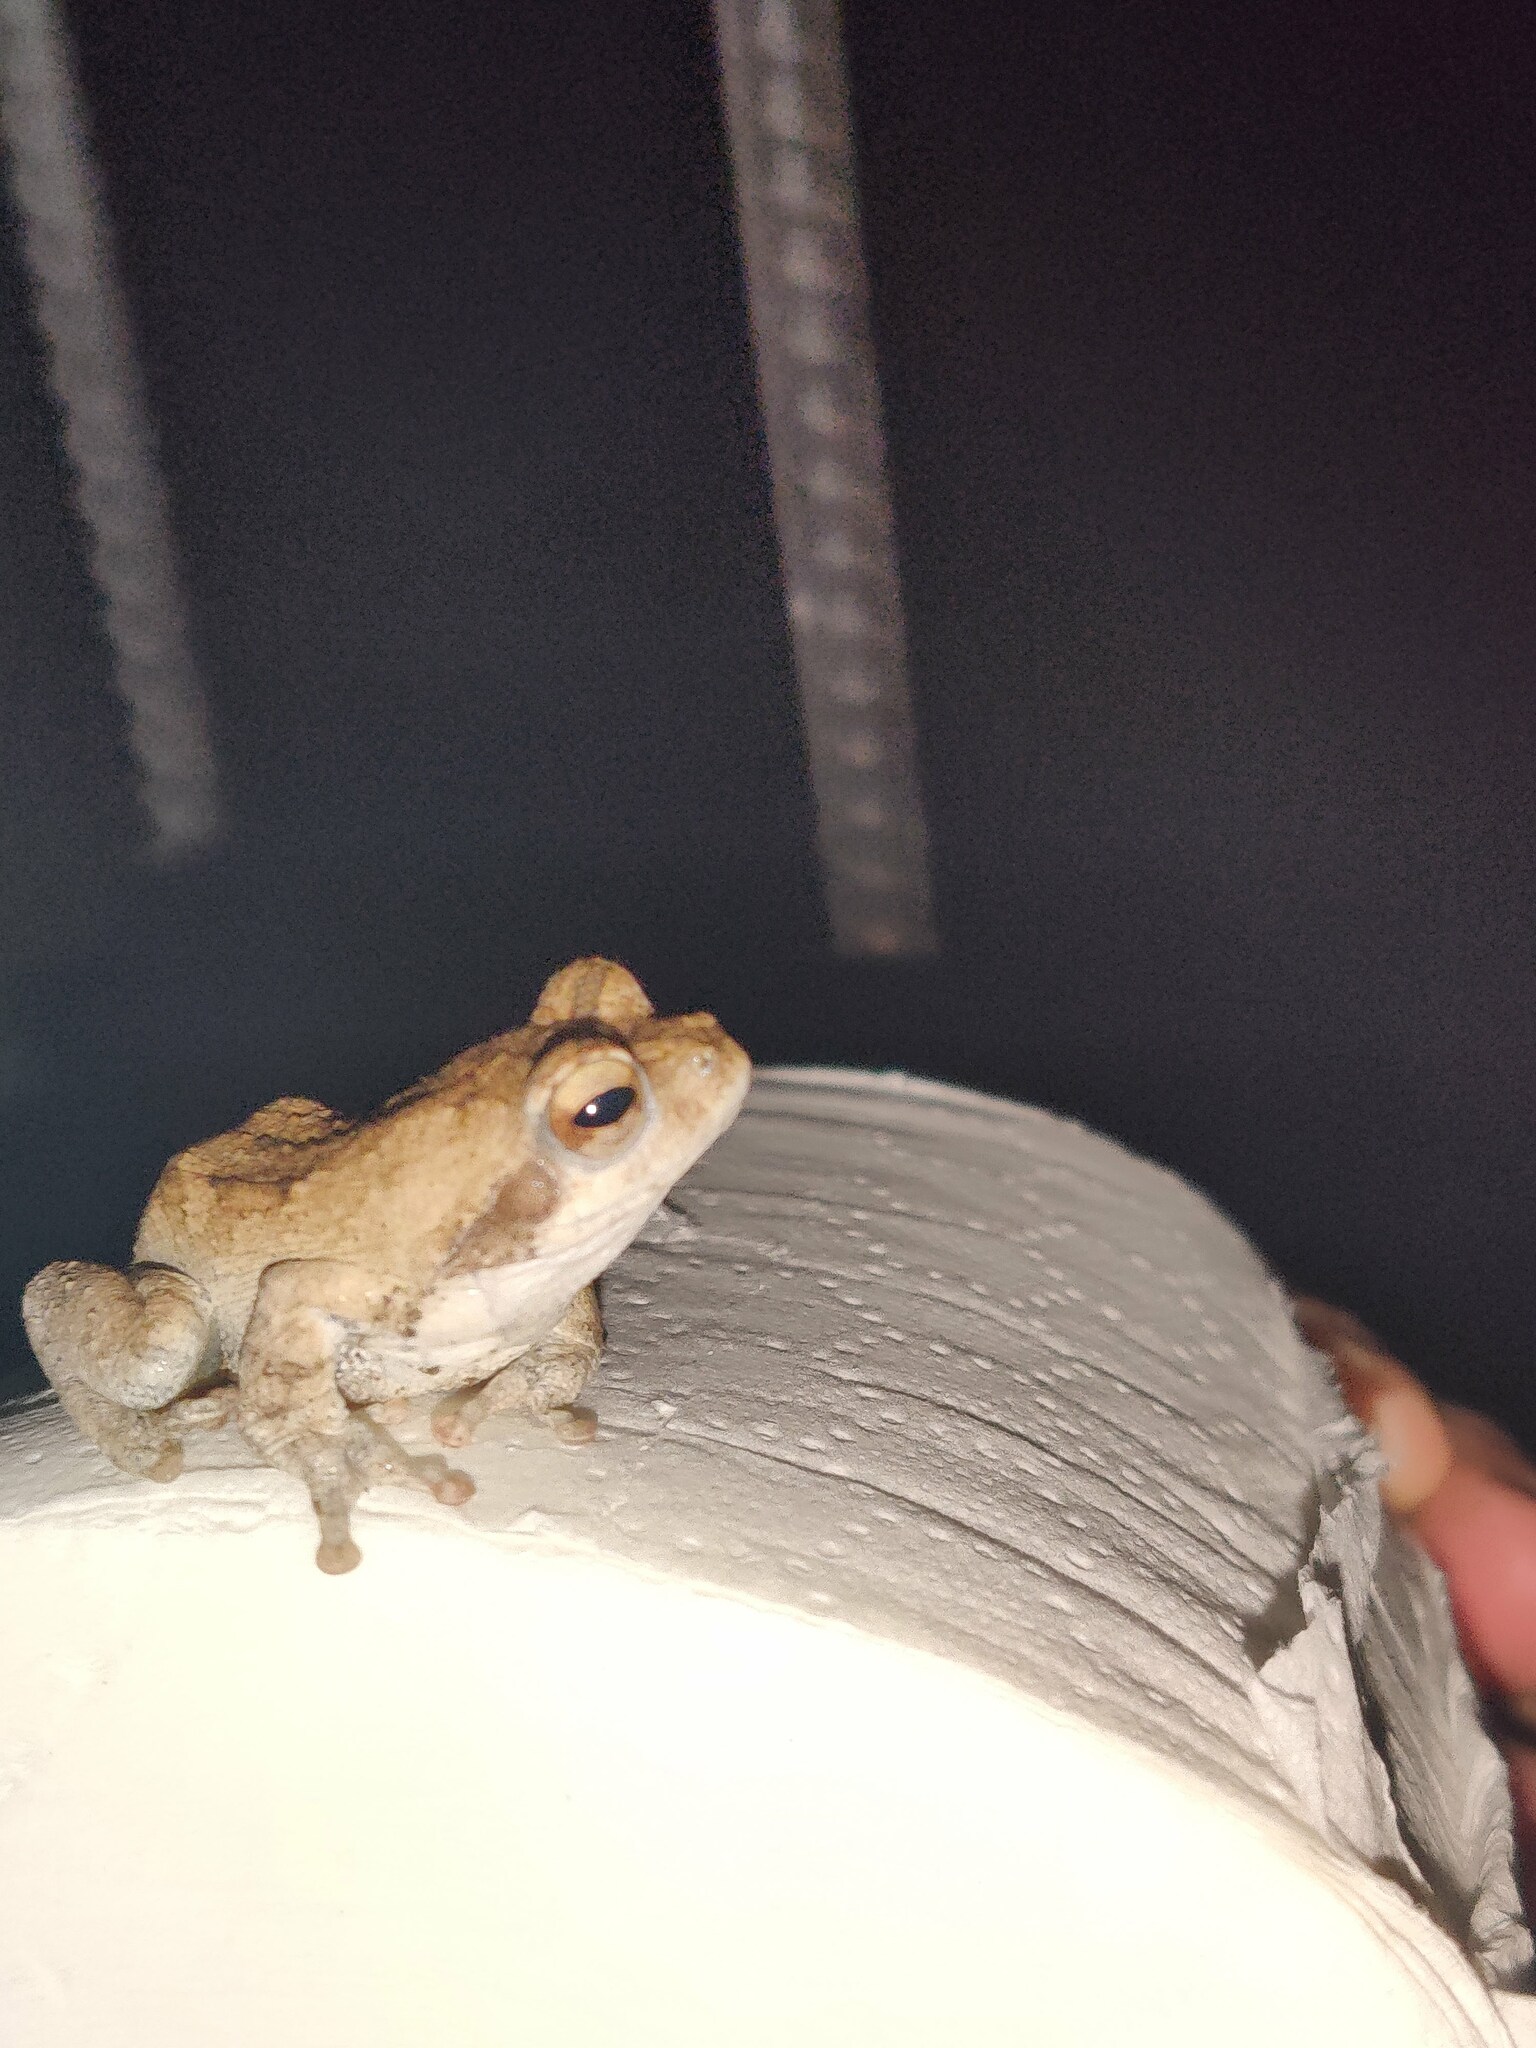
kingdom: Animalia
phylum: Chordata
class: Amphibia
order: Anura
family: Rhacophoridae
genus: Chiromantis
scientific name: Chiromantis xerampelina
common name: African gray treefrog
